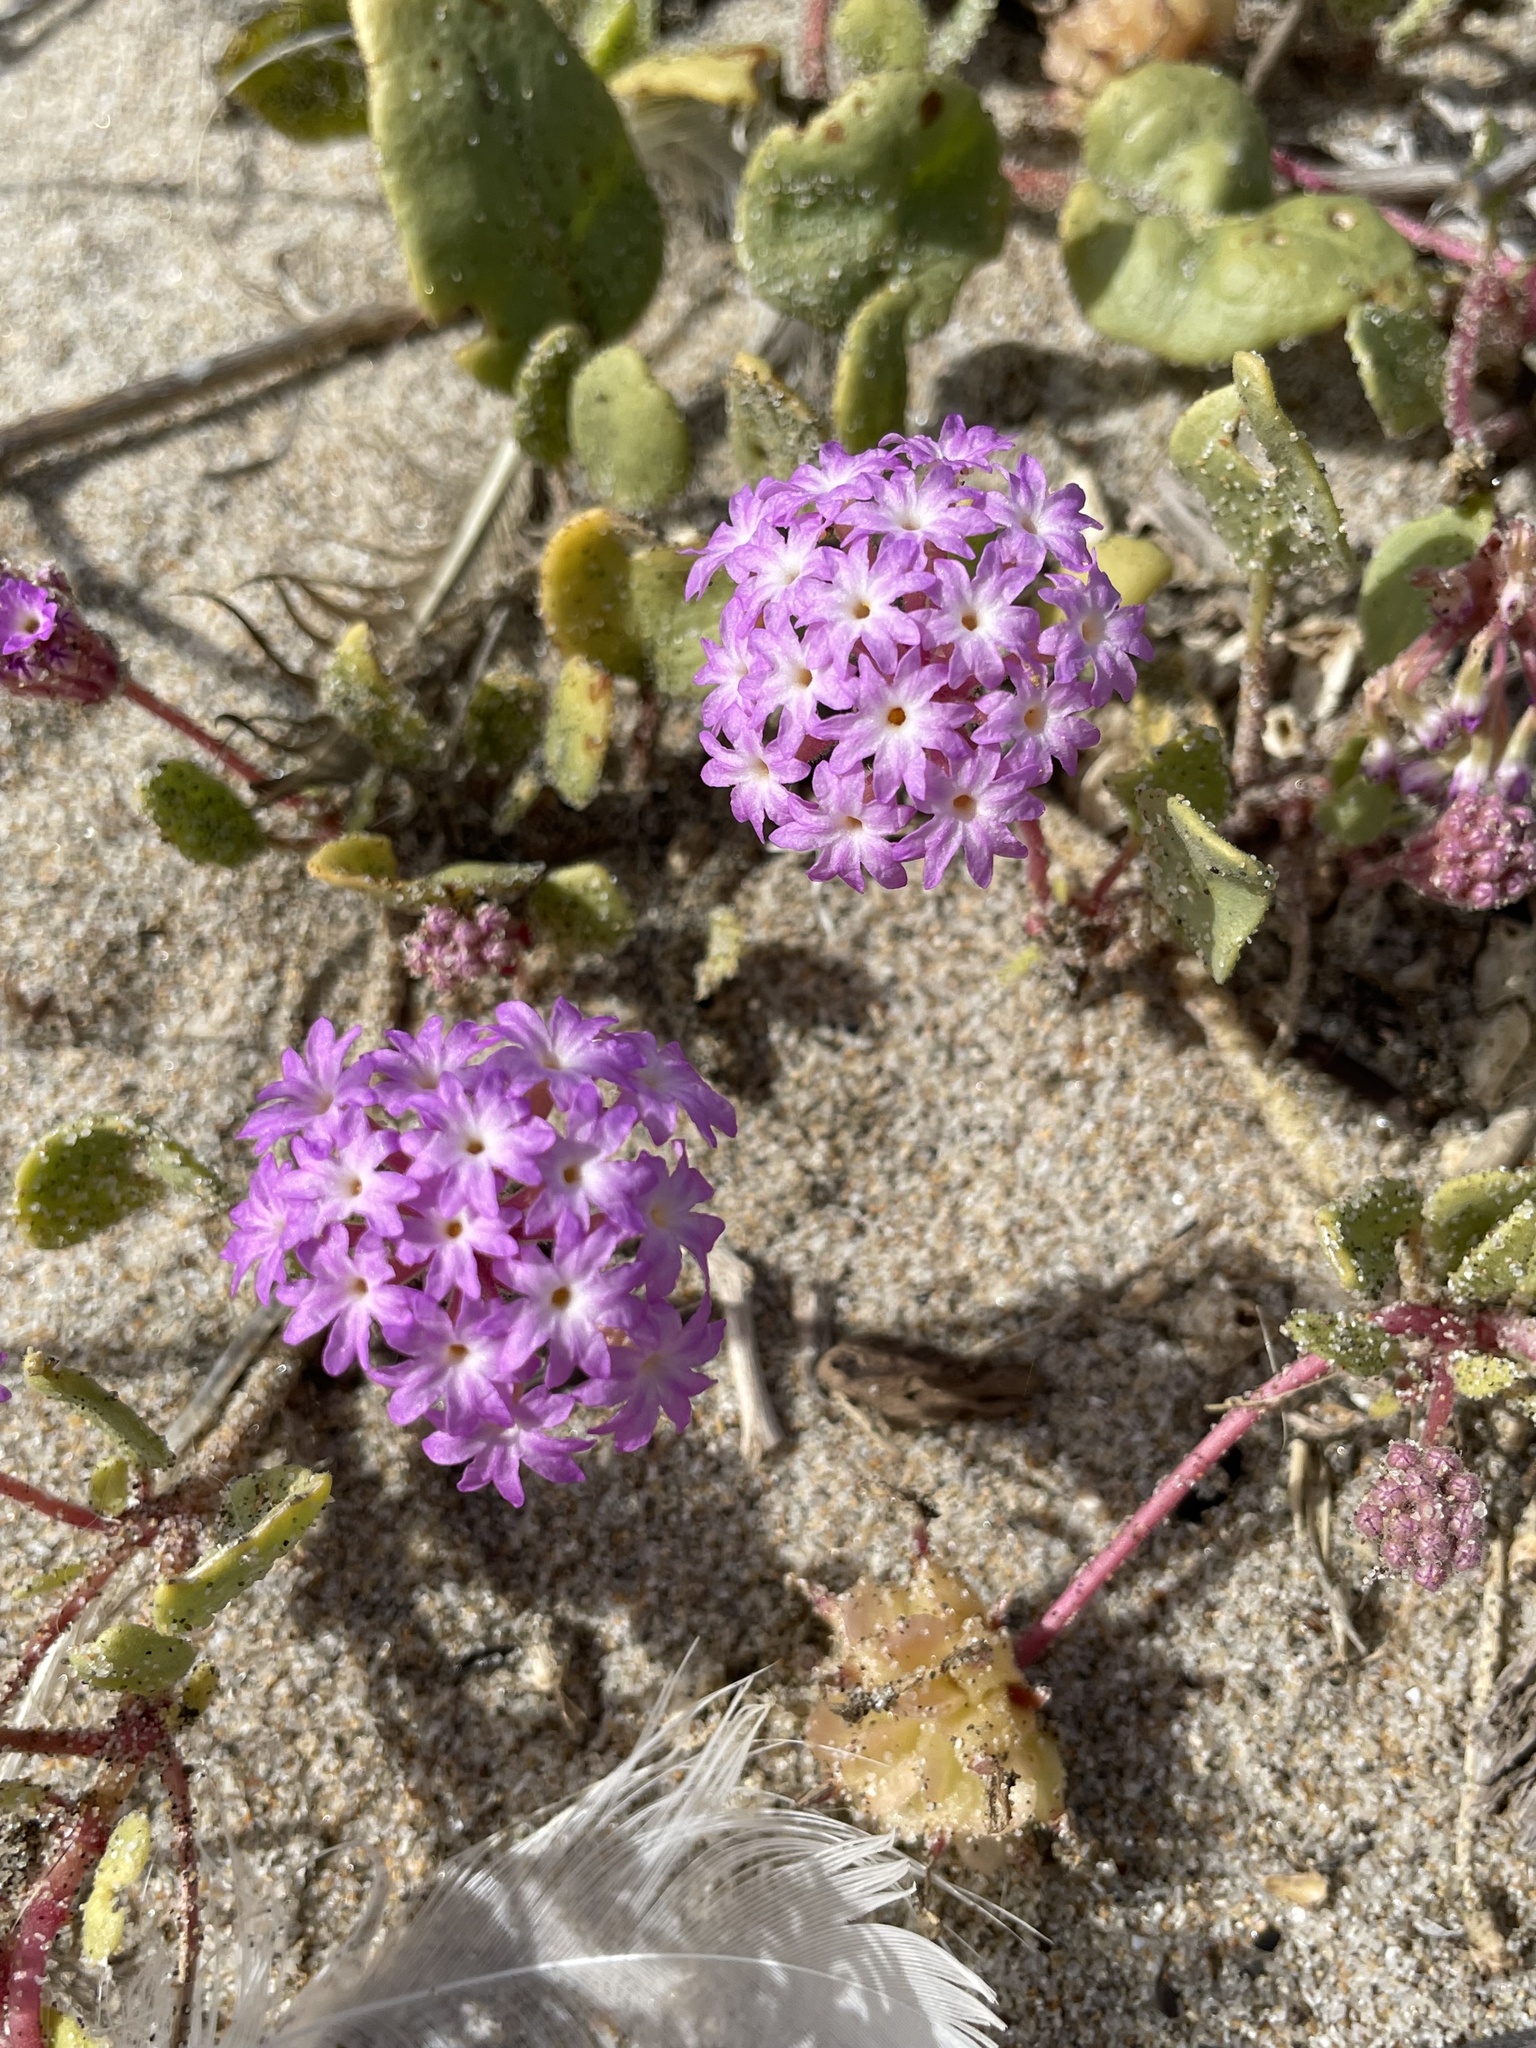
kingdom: Plantae
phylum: Tracheophyta
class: Magnoliopsida
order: Caryophyllales
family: Nyctaginaceae
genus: Abronia
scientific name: Abronia umbellata
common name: Sand-verbena
